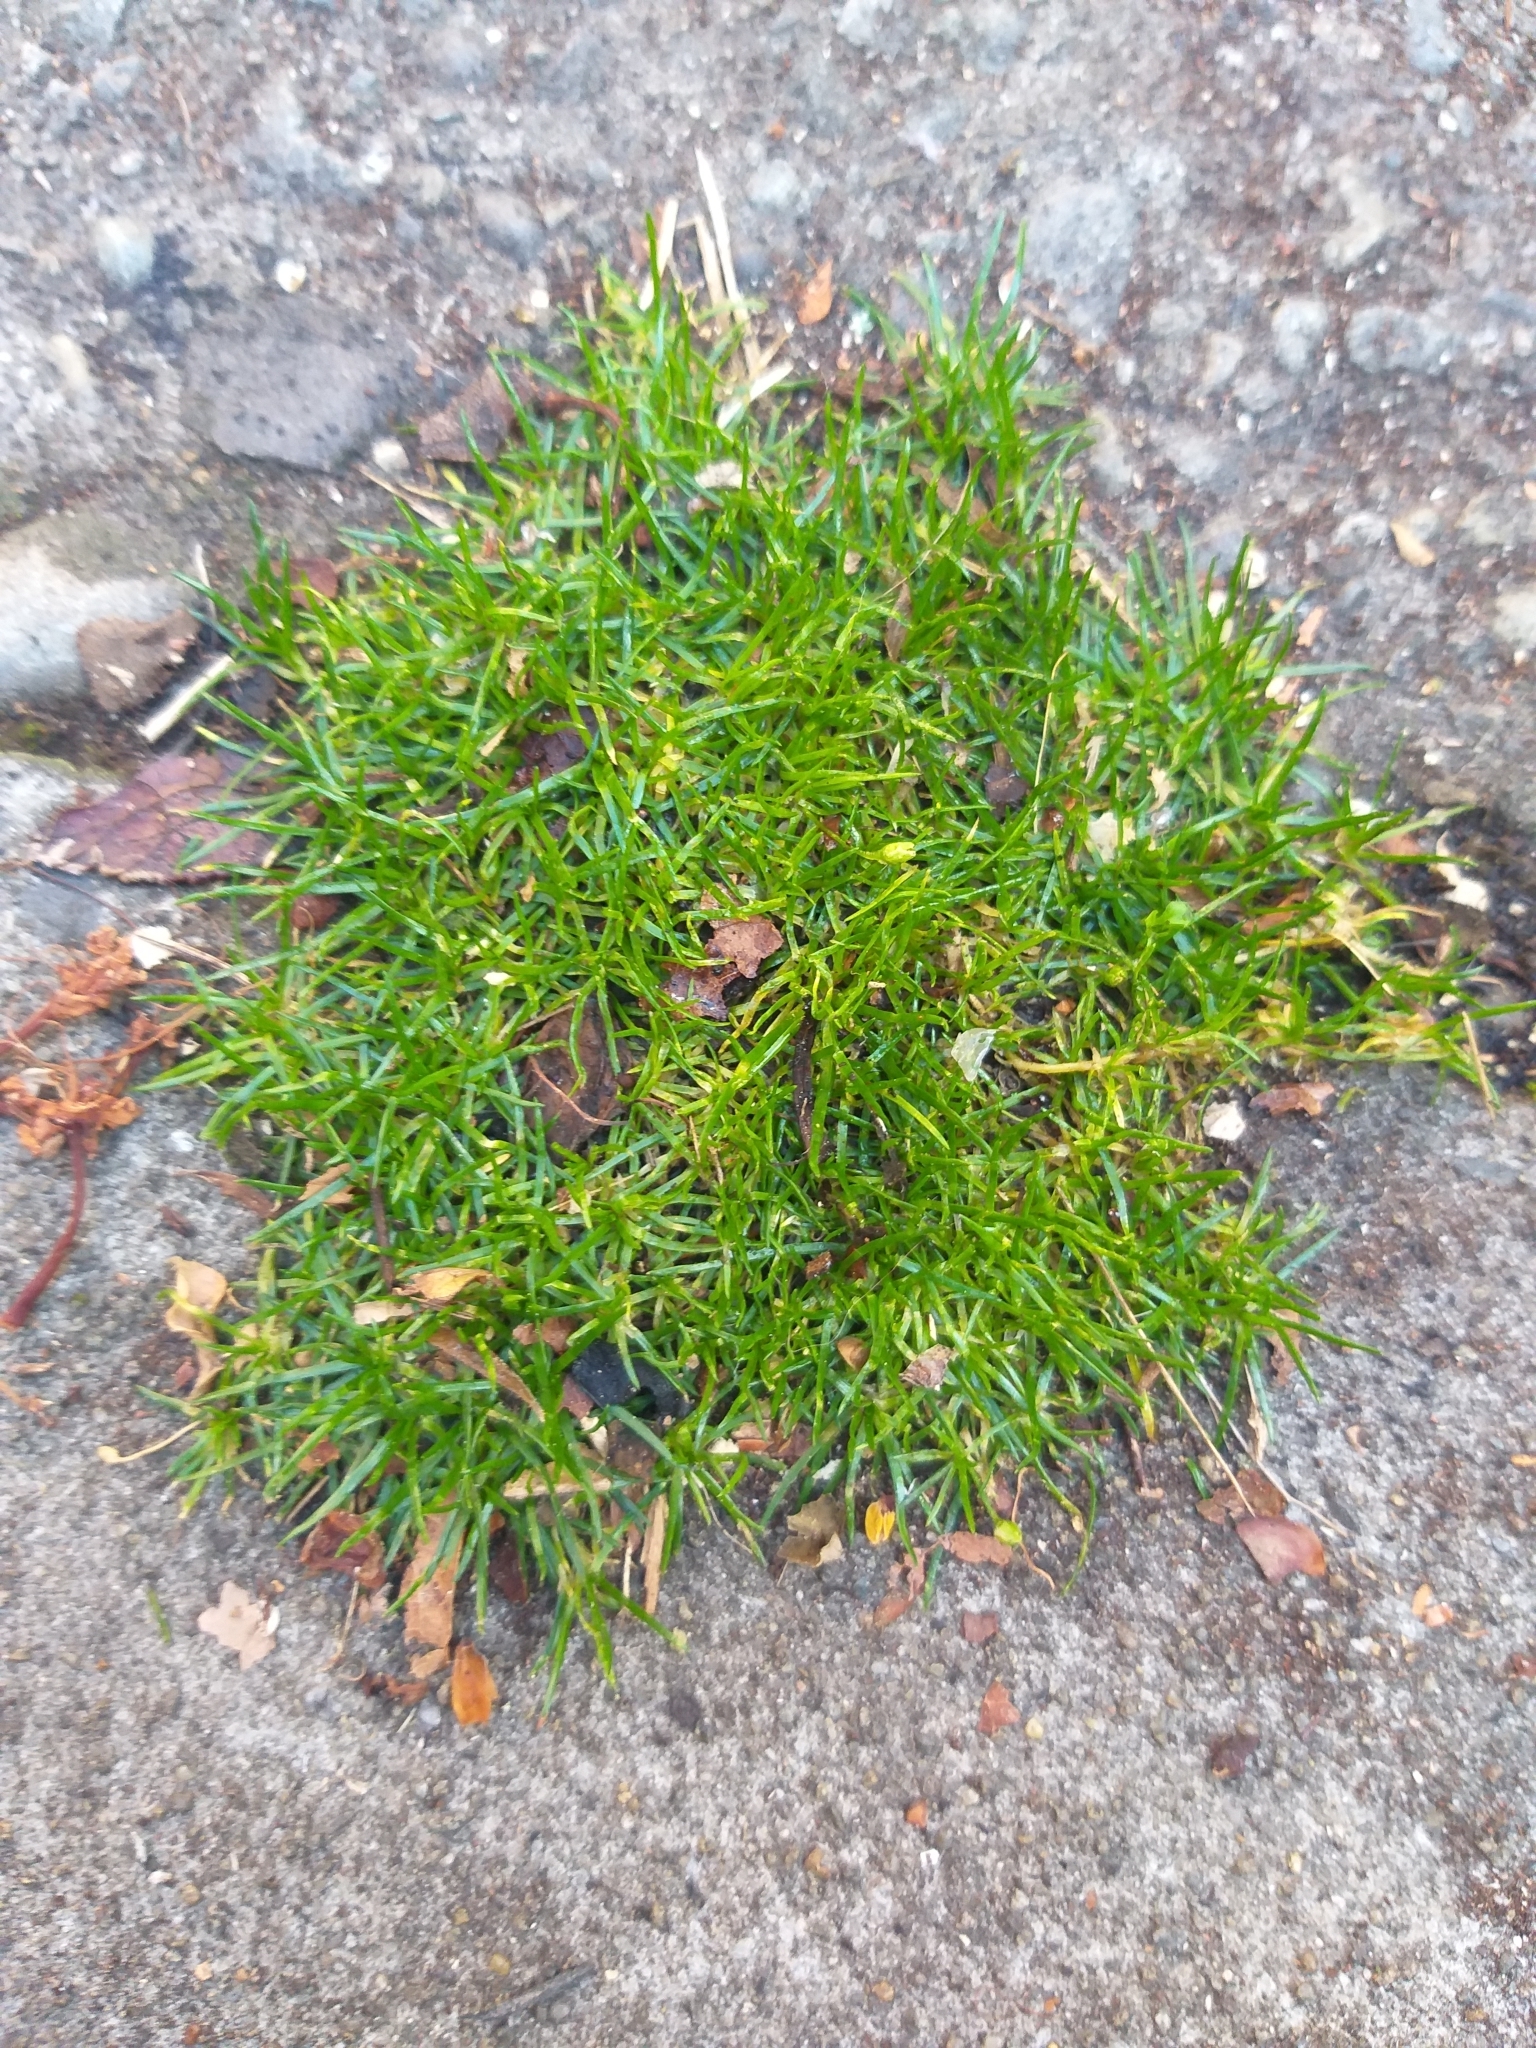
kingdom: Plantae
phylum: Tracheophyta
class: Magnoliopsida
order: Caryophyllales
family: Caryophyllaceae
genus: Sagina
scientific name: Sagina procumbens
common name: Procumbent pearlwort
